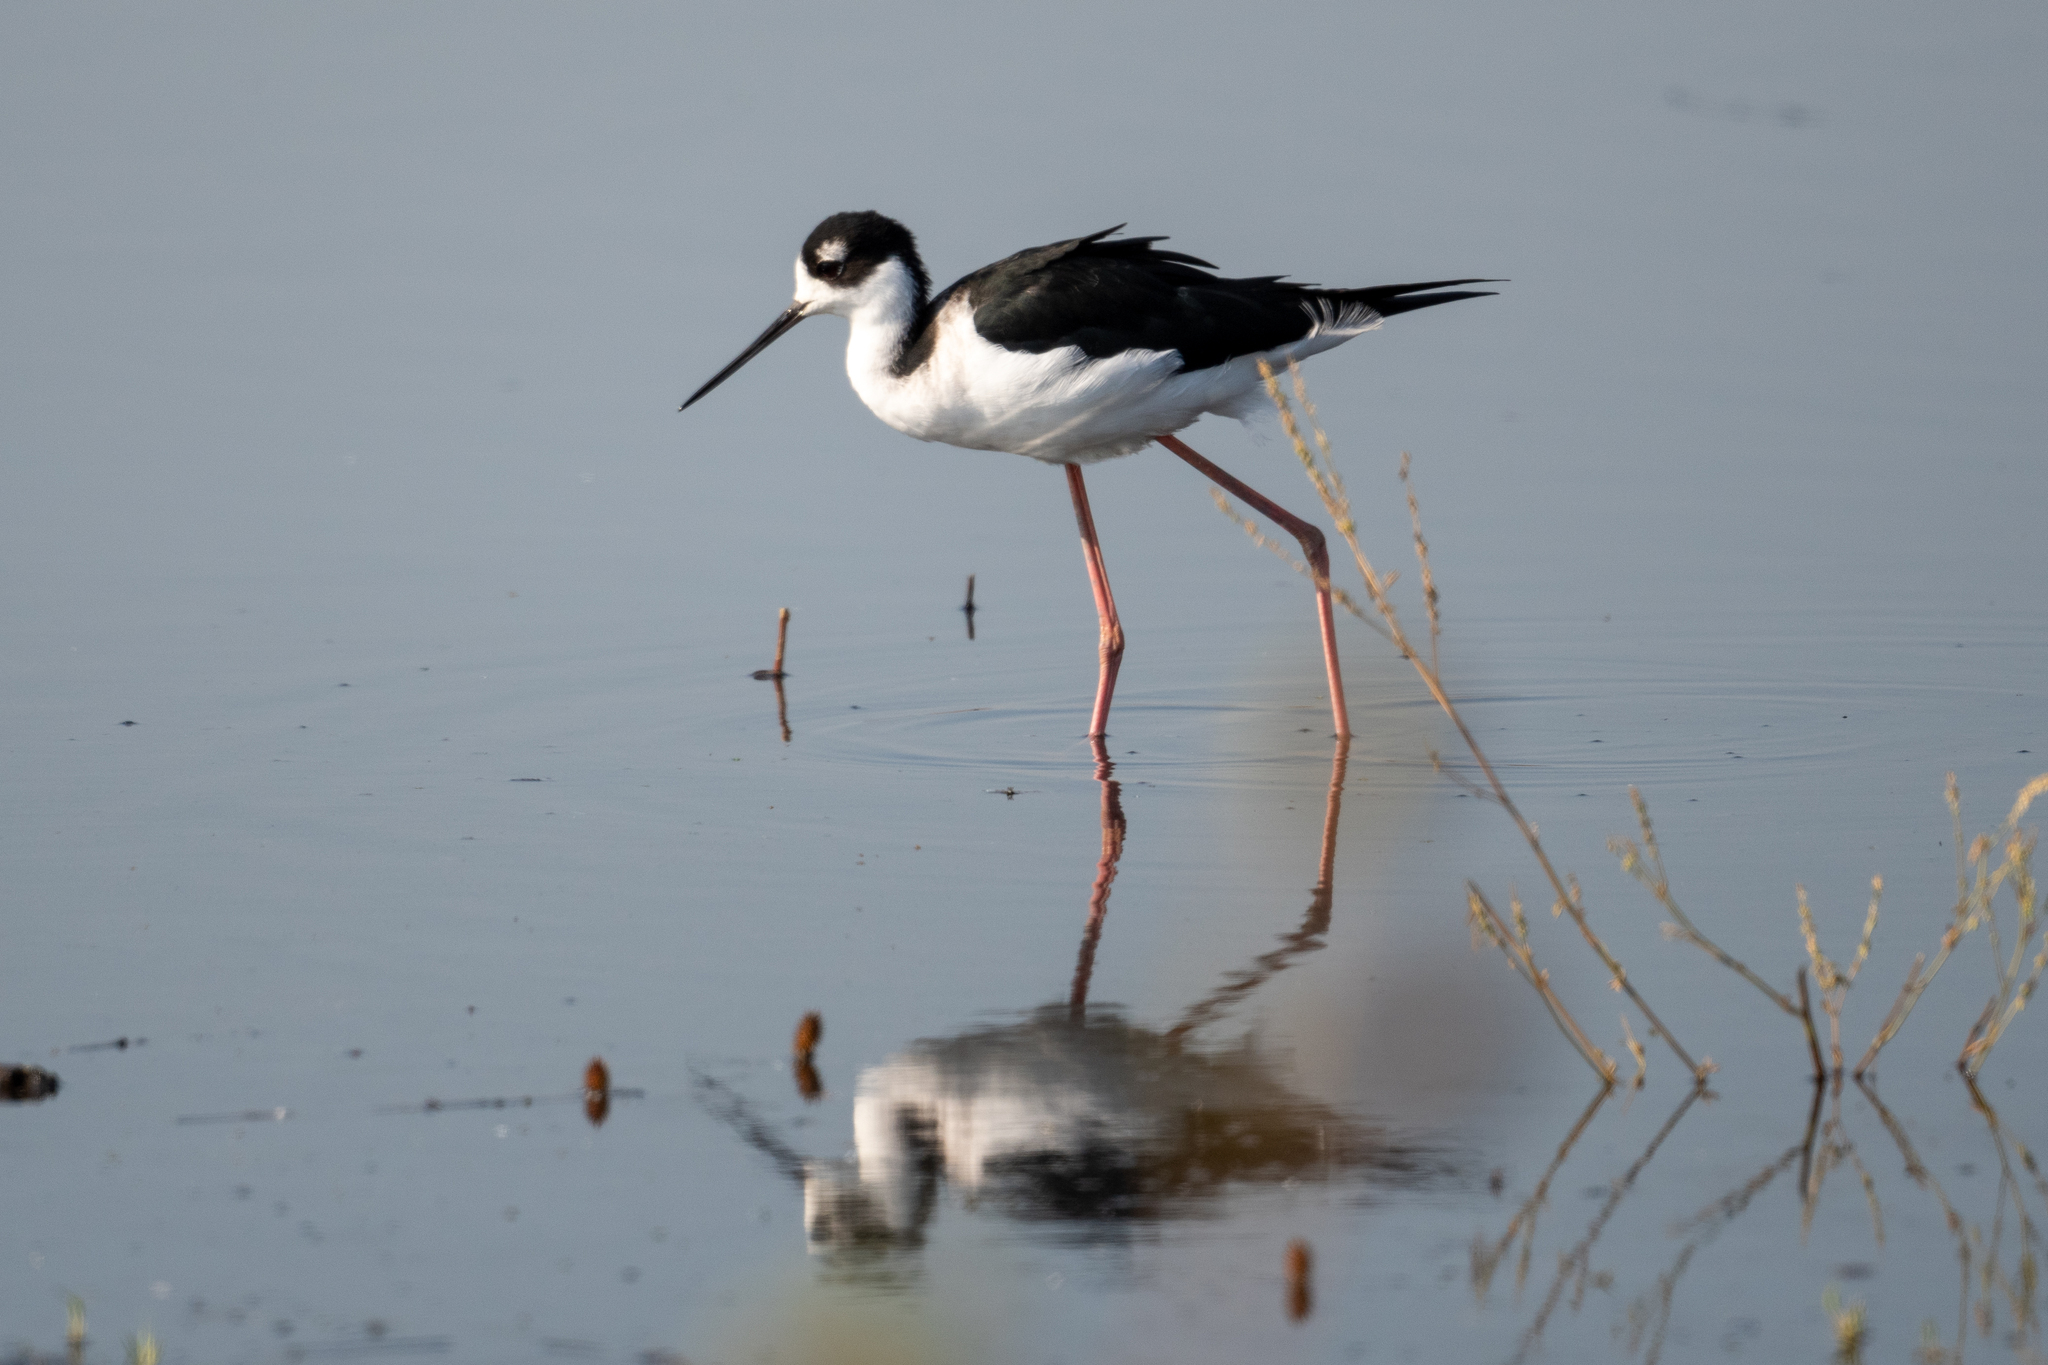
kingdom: Animalia
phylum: Chordata
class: Aves
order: Charadriiformes
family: Recurvirostridae
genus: Himantopus
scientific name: Himantopus mexicanus
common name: Black-necked stilt
